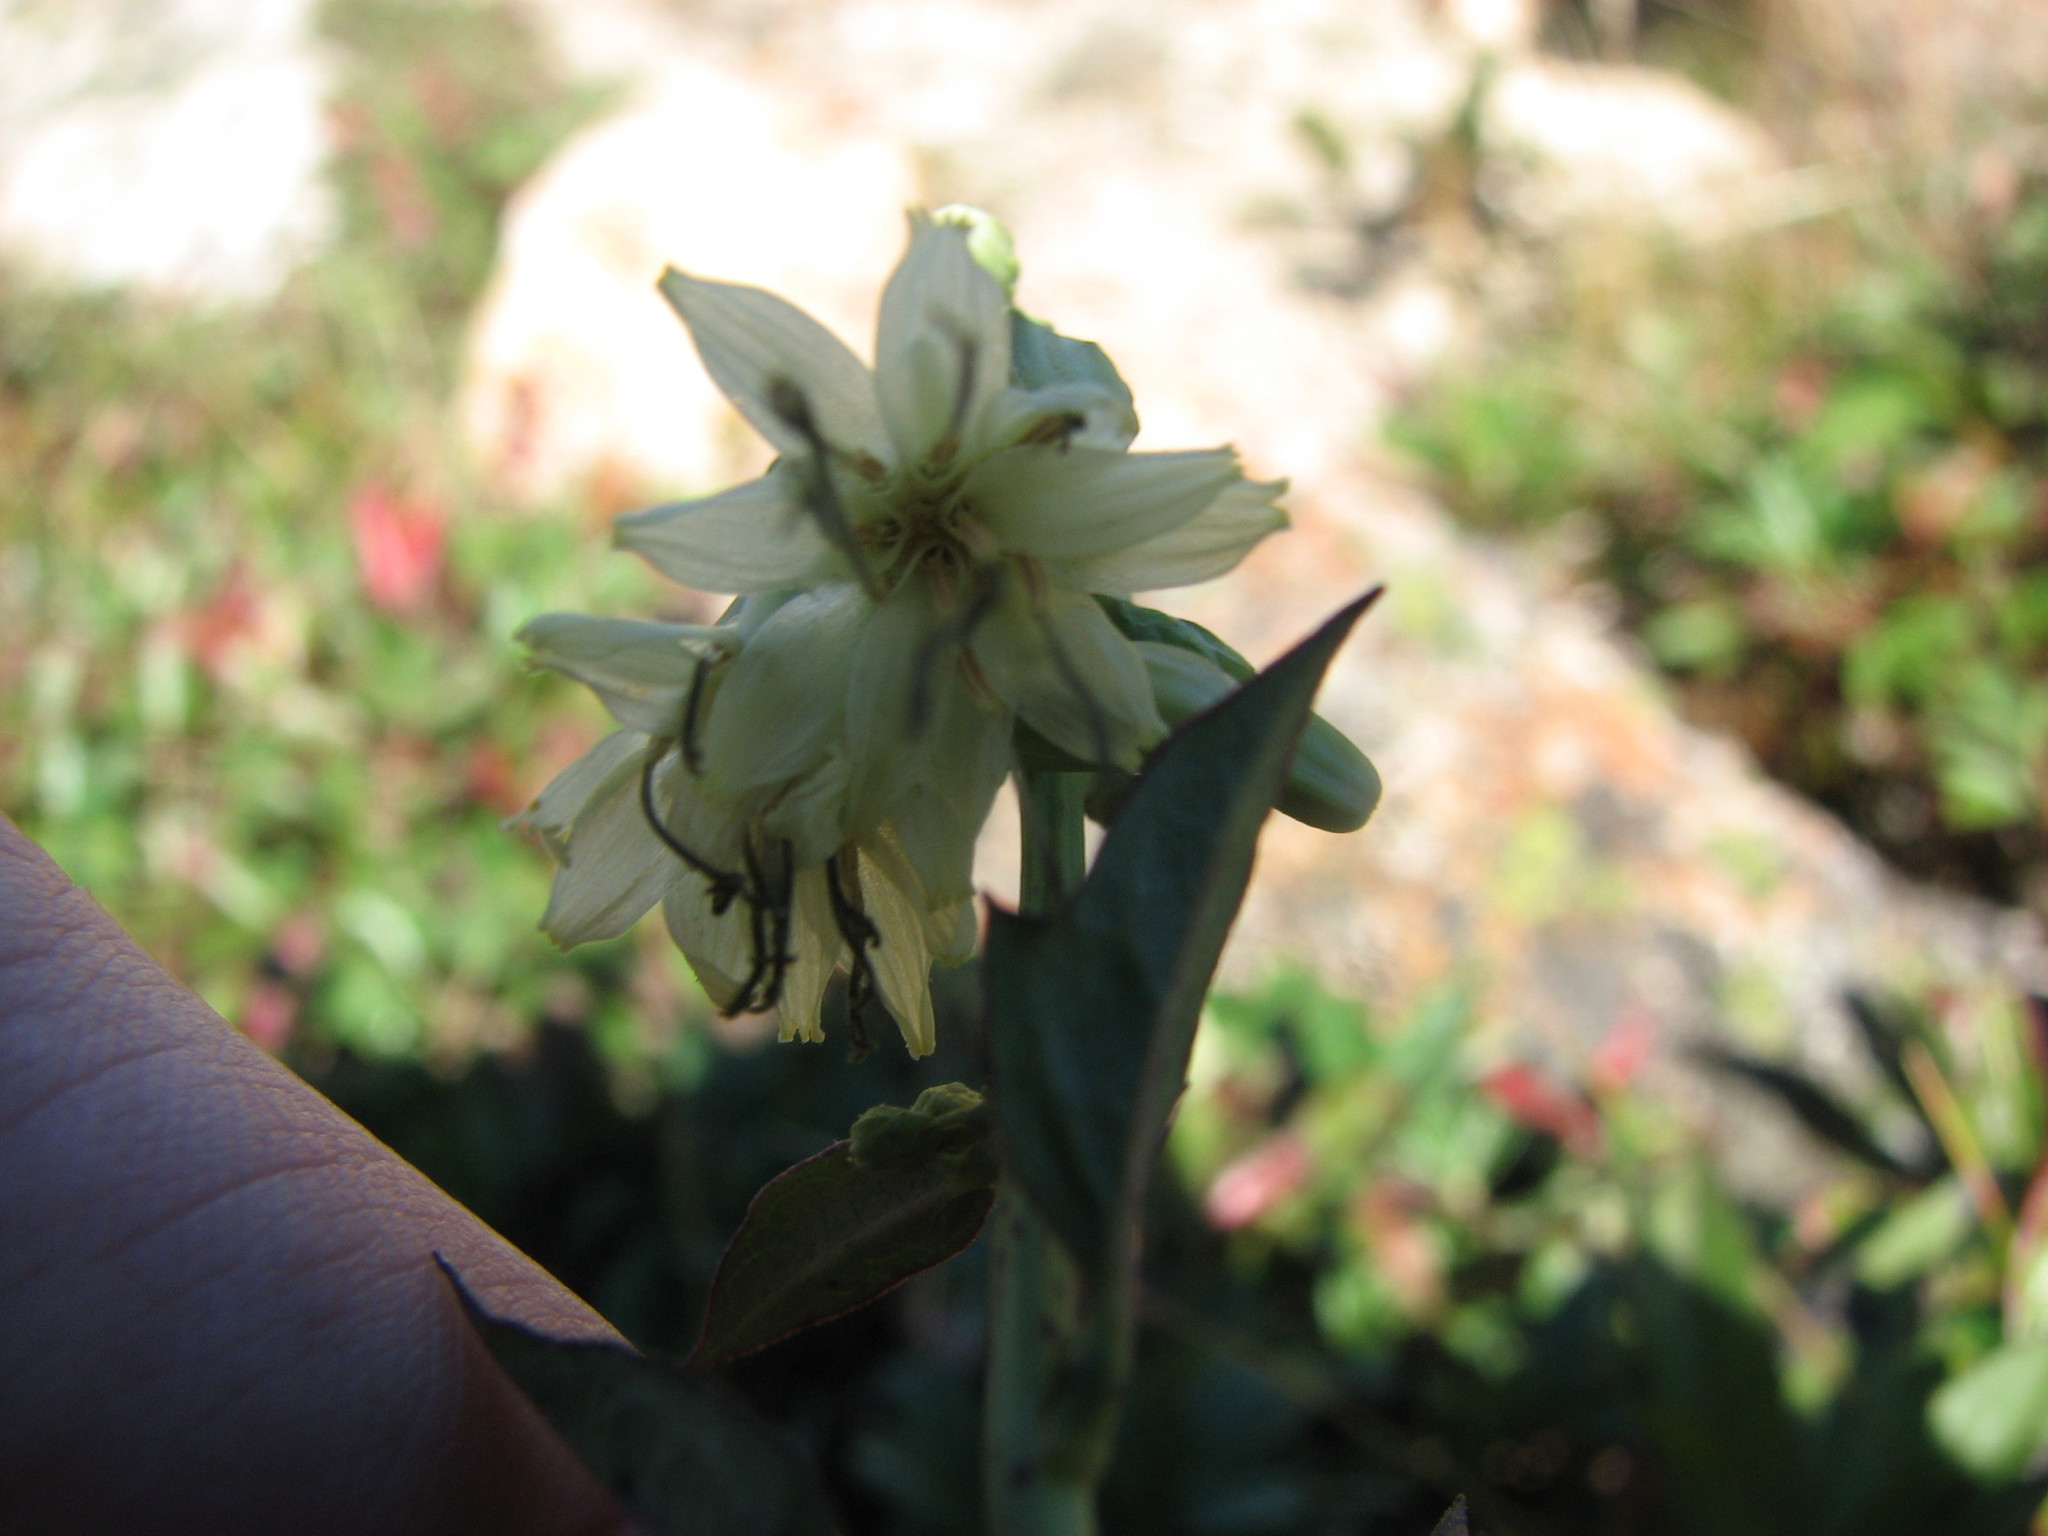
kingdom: Plantae
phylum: Tracheophyta
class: Magnoliopsida
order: Asterales
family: Asteraceae
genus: Nabalus
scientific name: Nabalus trifoliolatus
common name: Gall-of-the-earth
